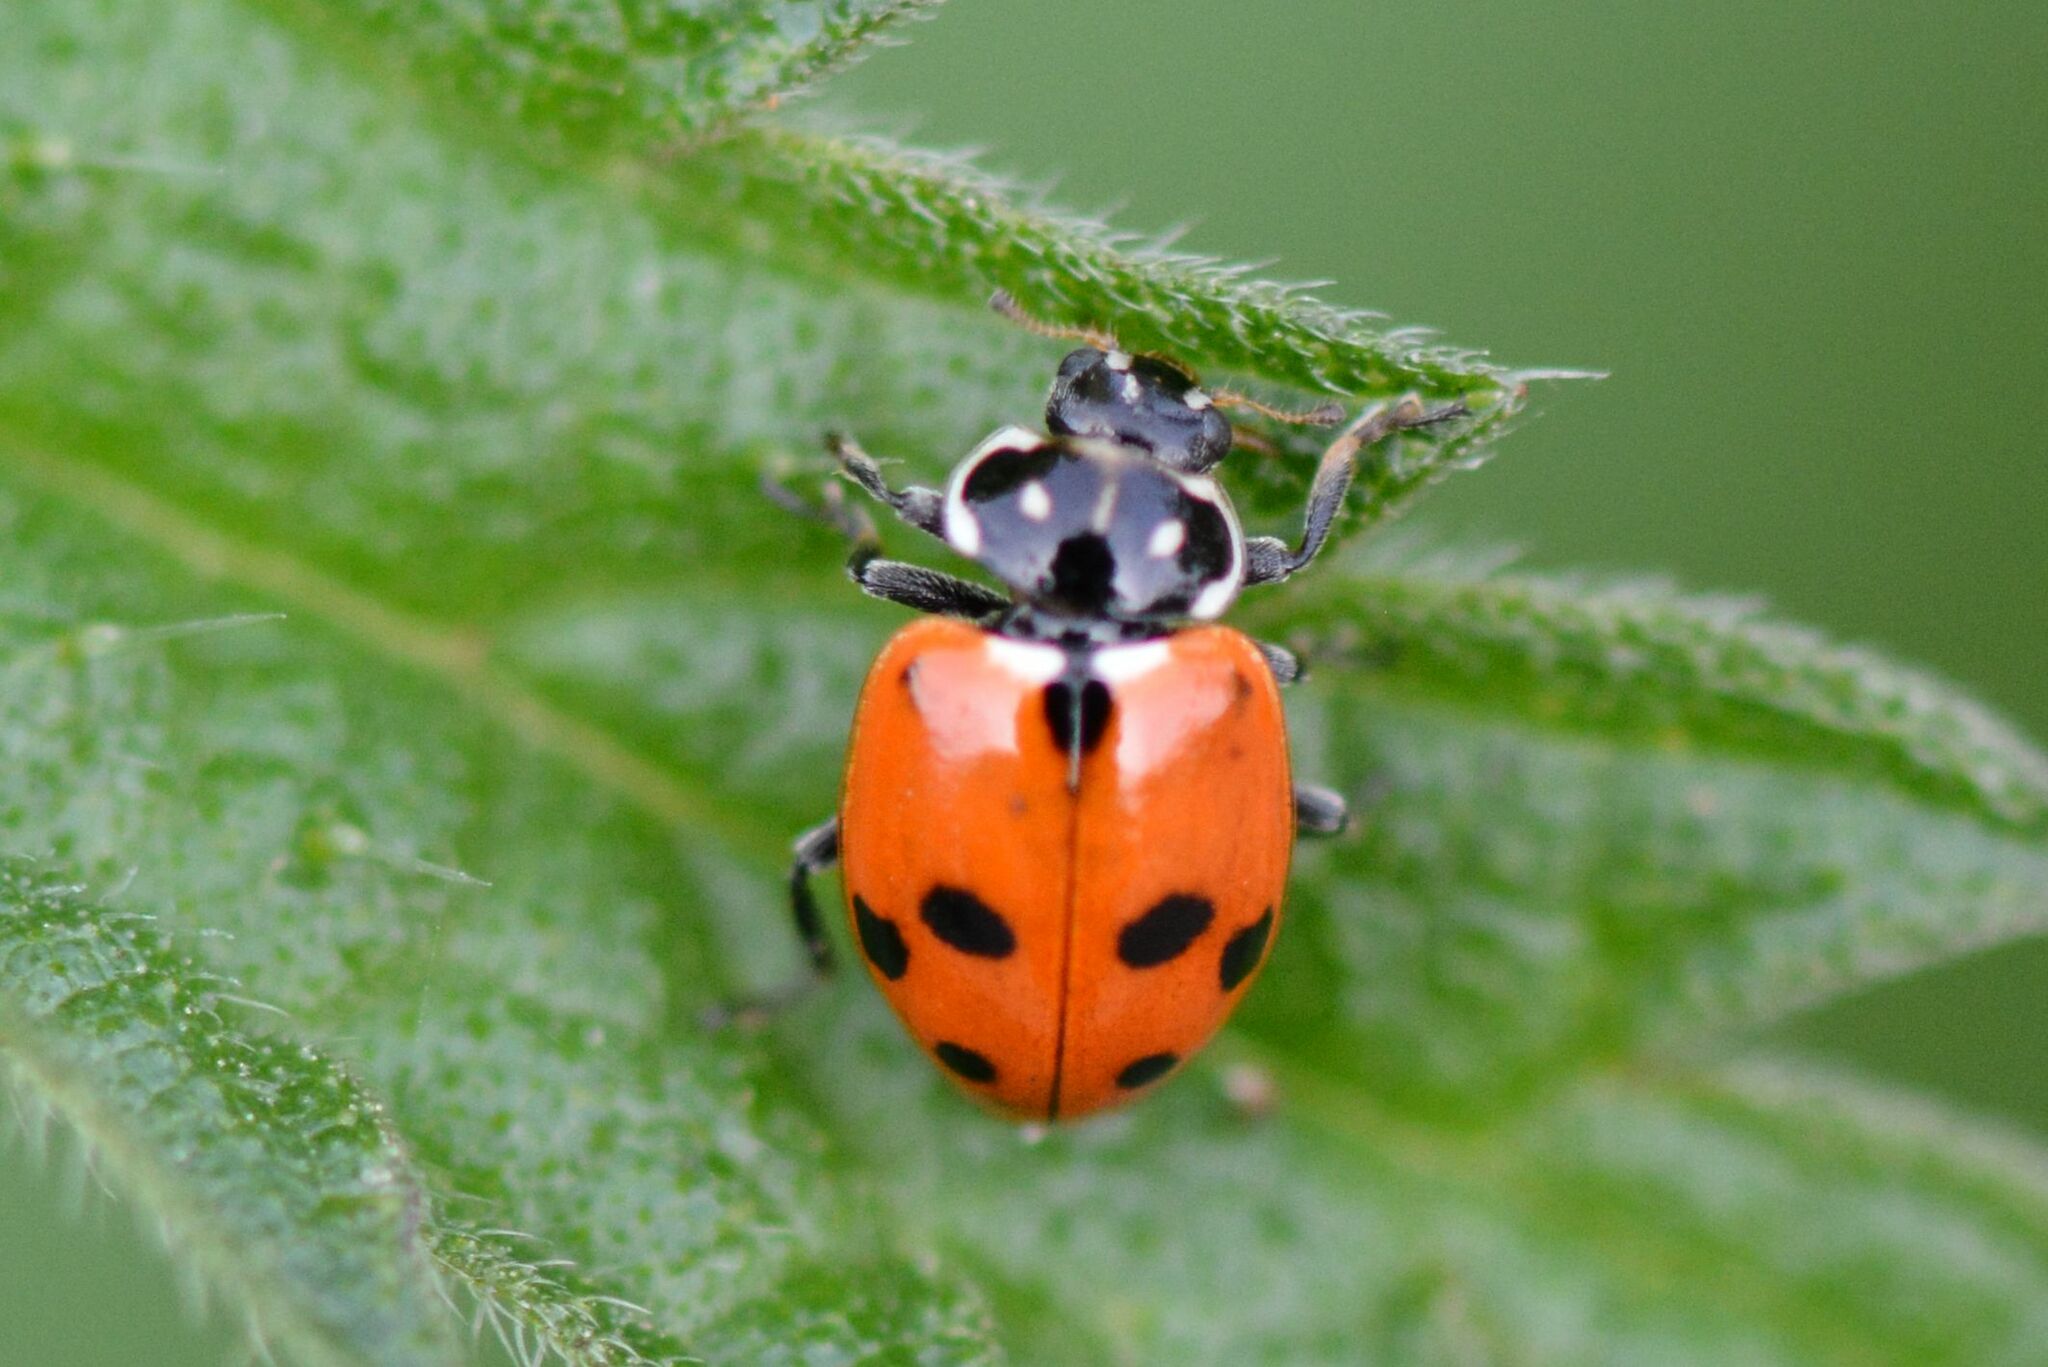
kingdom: Animalia
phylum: Arthropoda
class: Insecta
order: Coleoptera
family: Coccinellidae
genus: Hippodamia
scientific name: Hippodamia variegata
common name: Ladybird beetle
